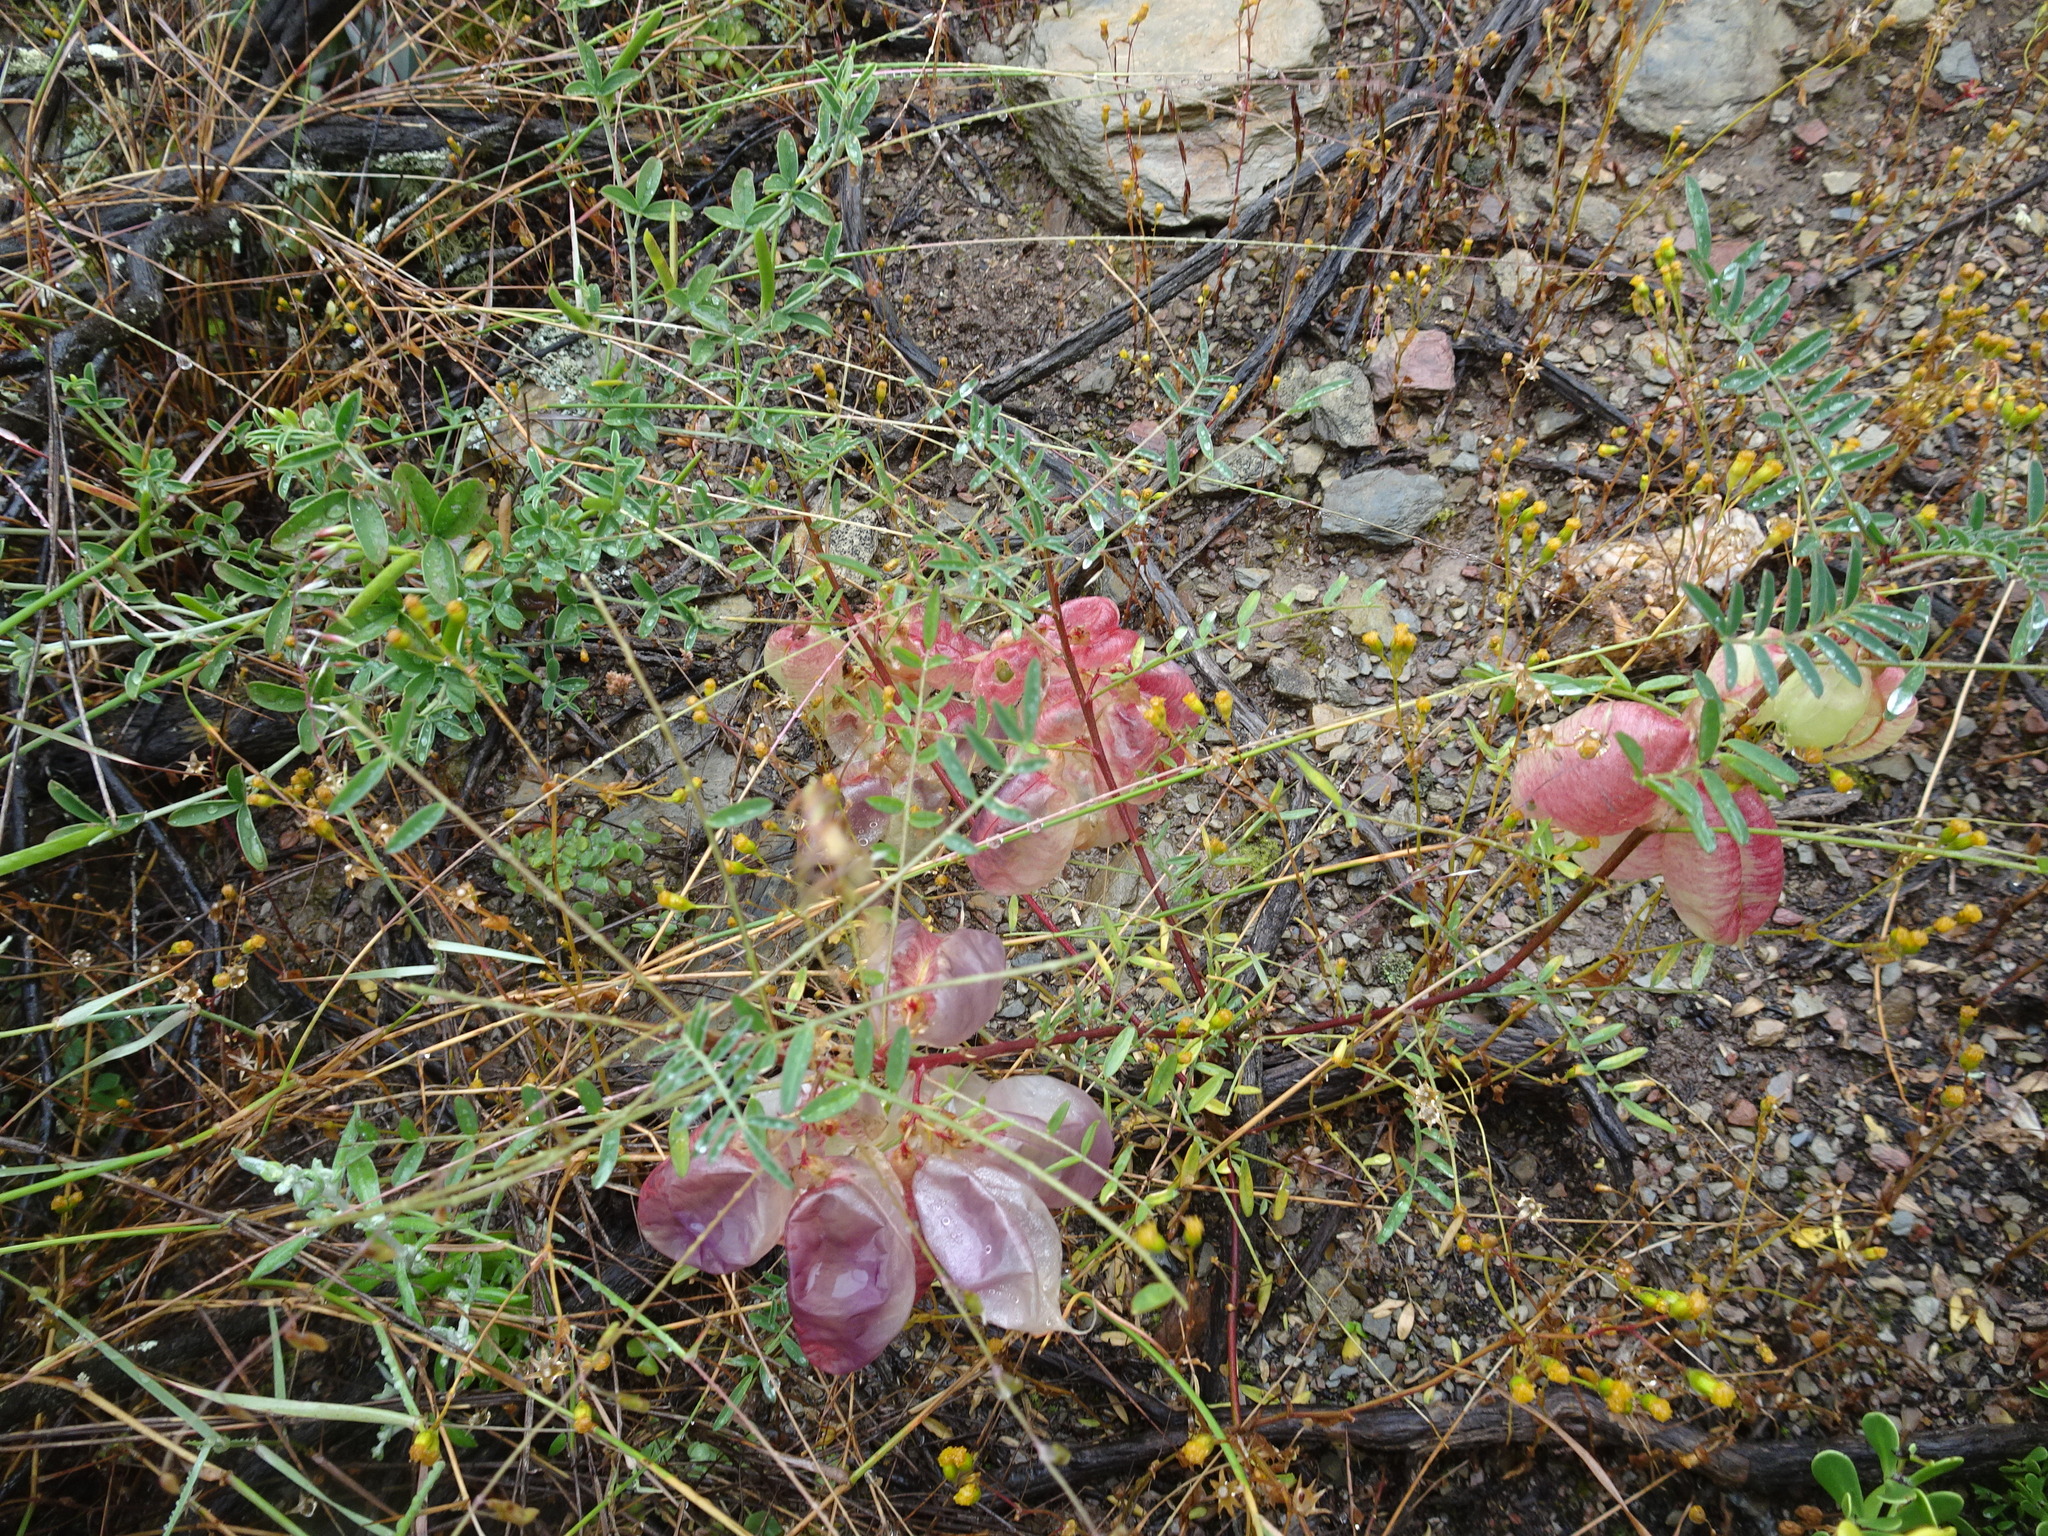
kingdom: Plantae
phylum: Tracheophyta
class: Magnoliopsida
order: Fabales
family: Fabaceae
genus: Lessertia
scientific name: Lessertia frutescens
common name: Balloon-pea
